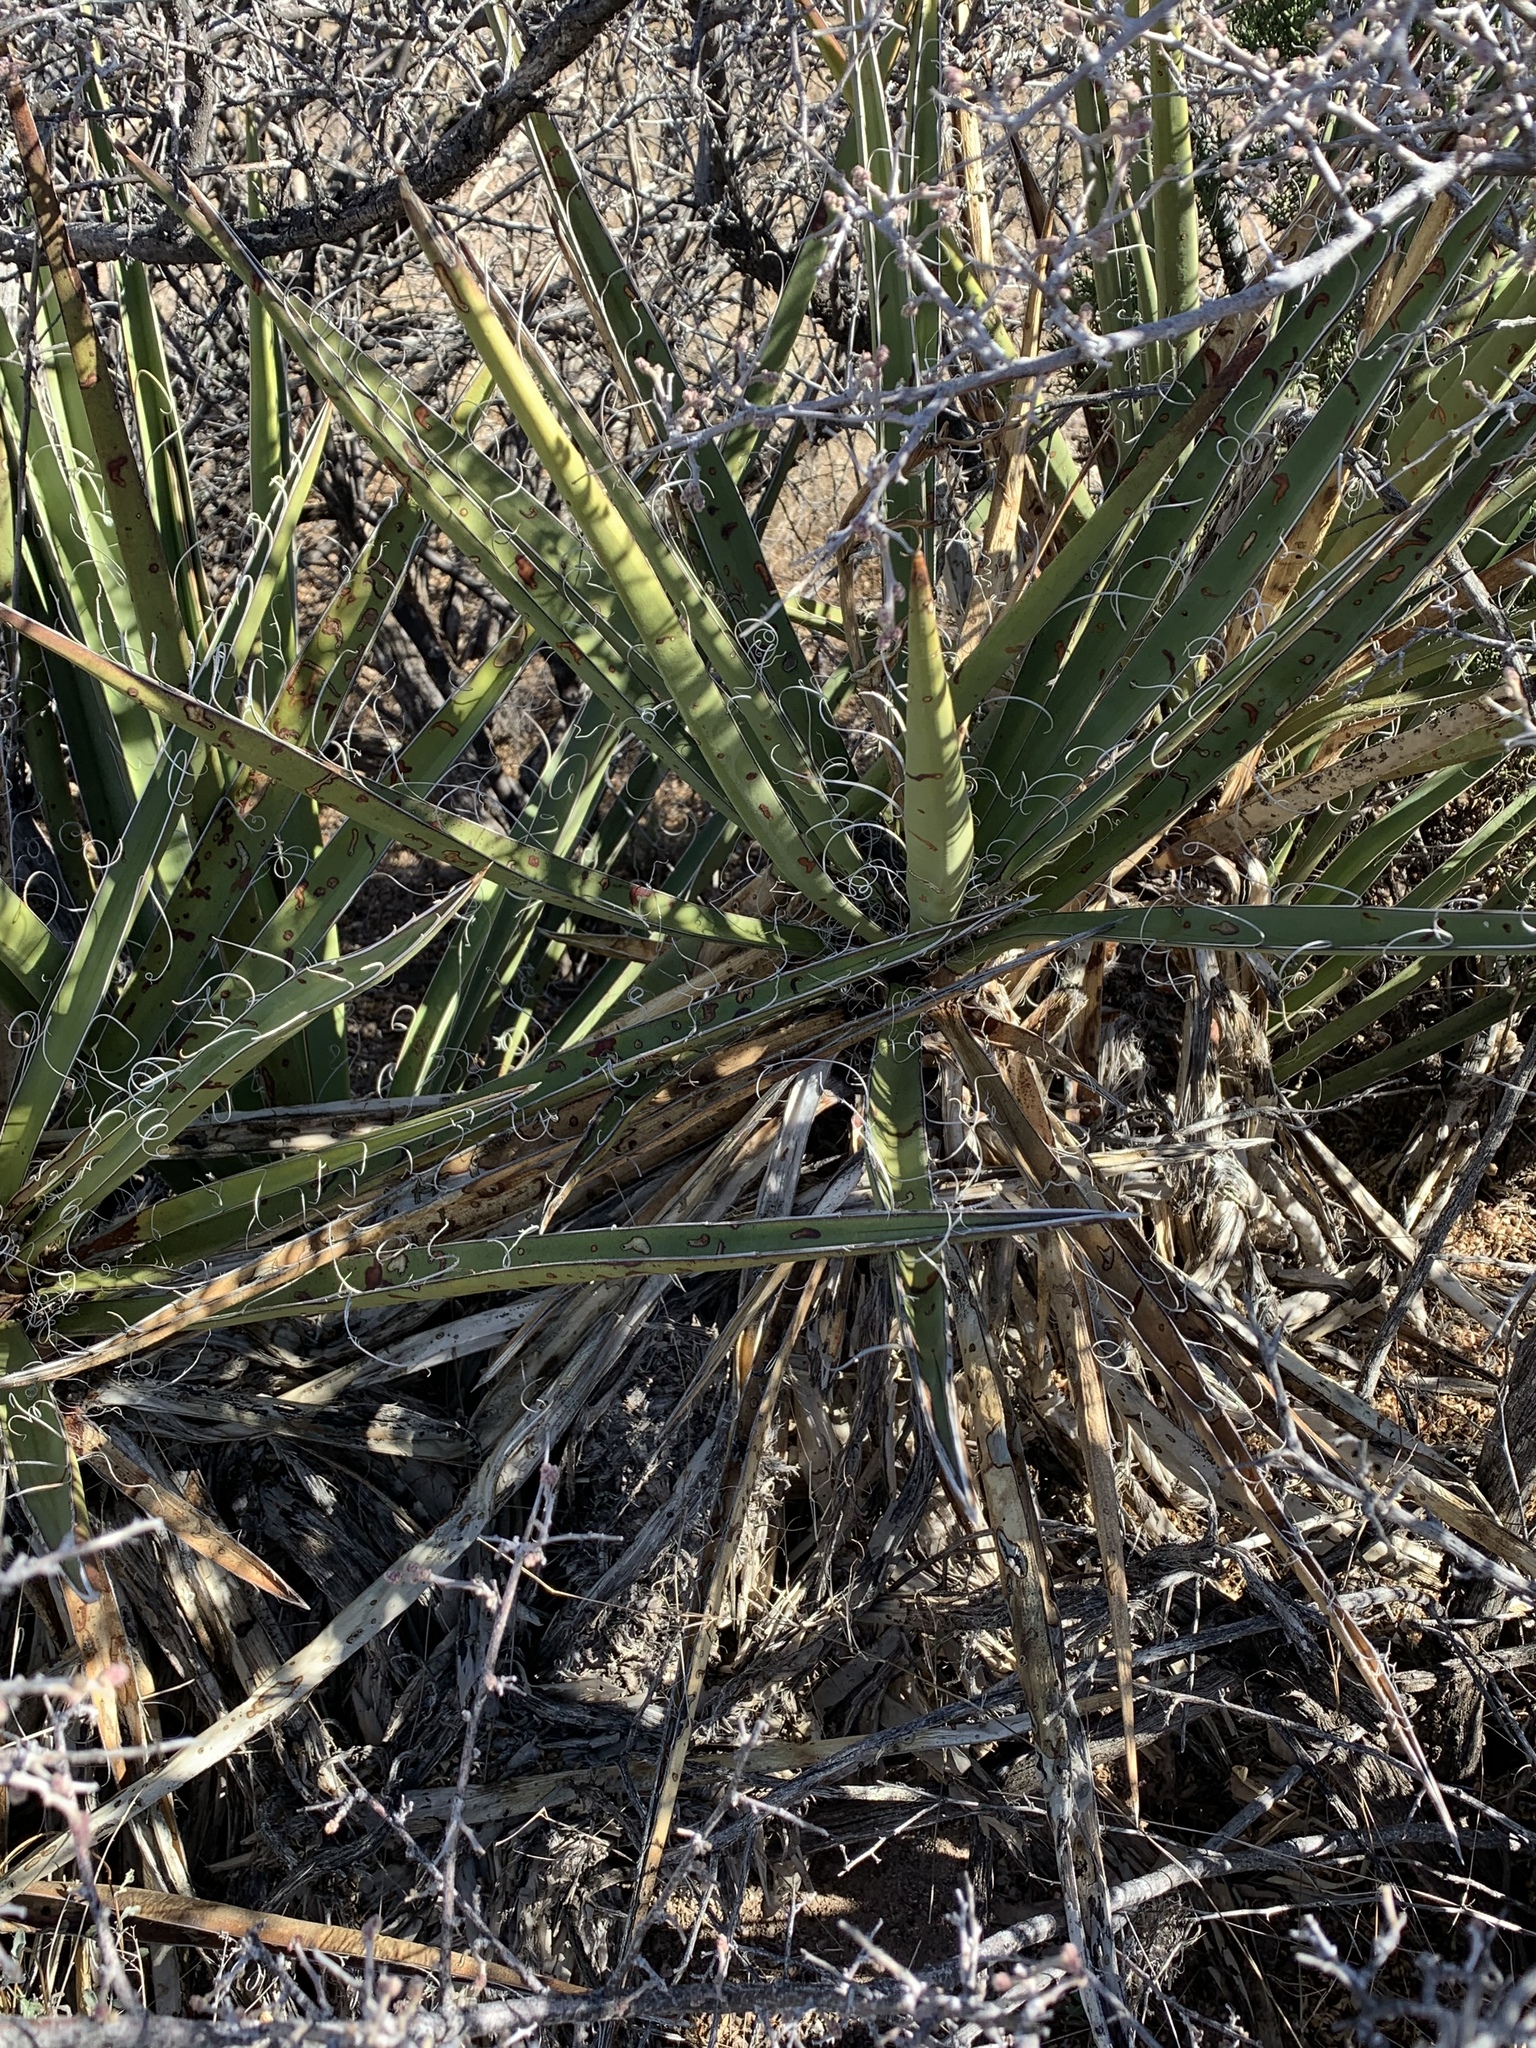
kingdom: Plantae
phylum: Tracheophyta
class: Liliopsida
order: Asparagales
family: Asparagaceae
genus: Yucca
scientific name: Yucca baccata
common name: Banana yucca
